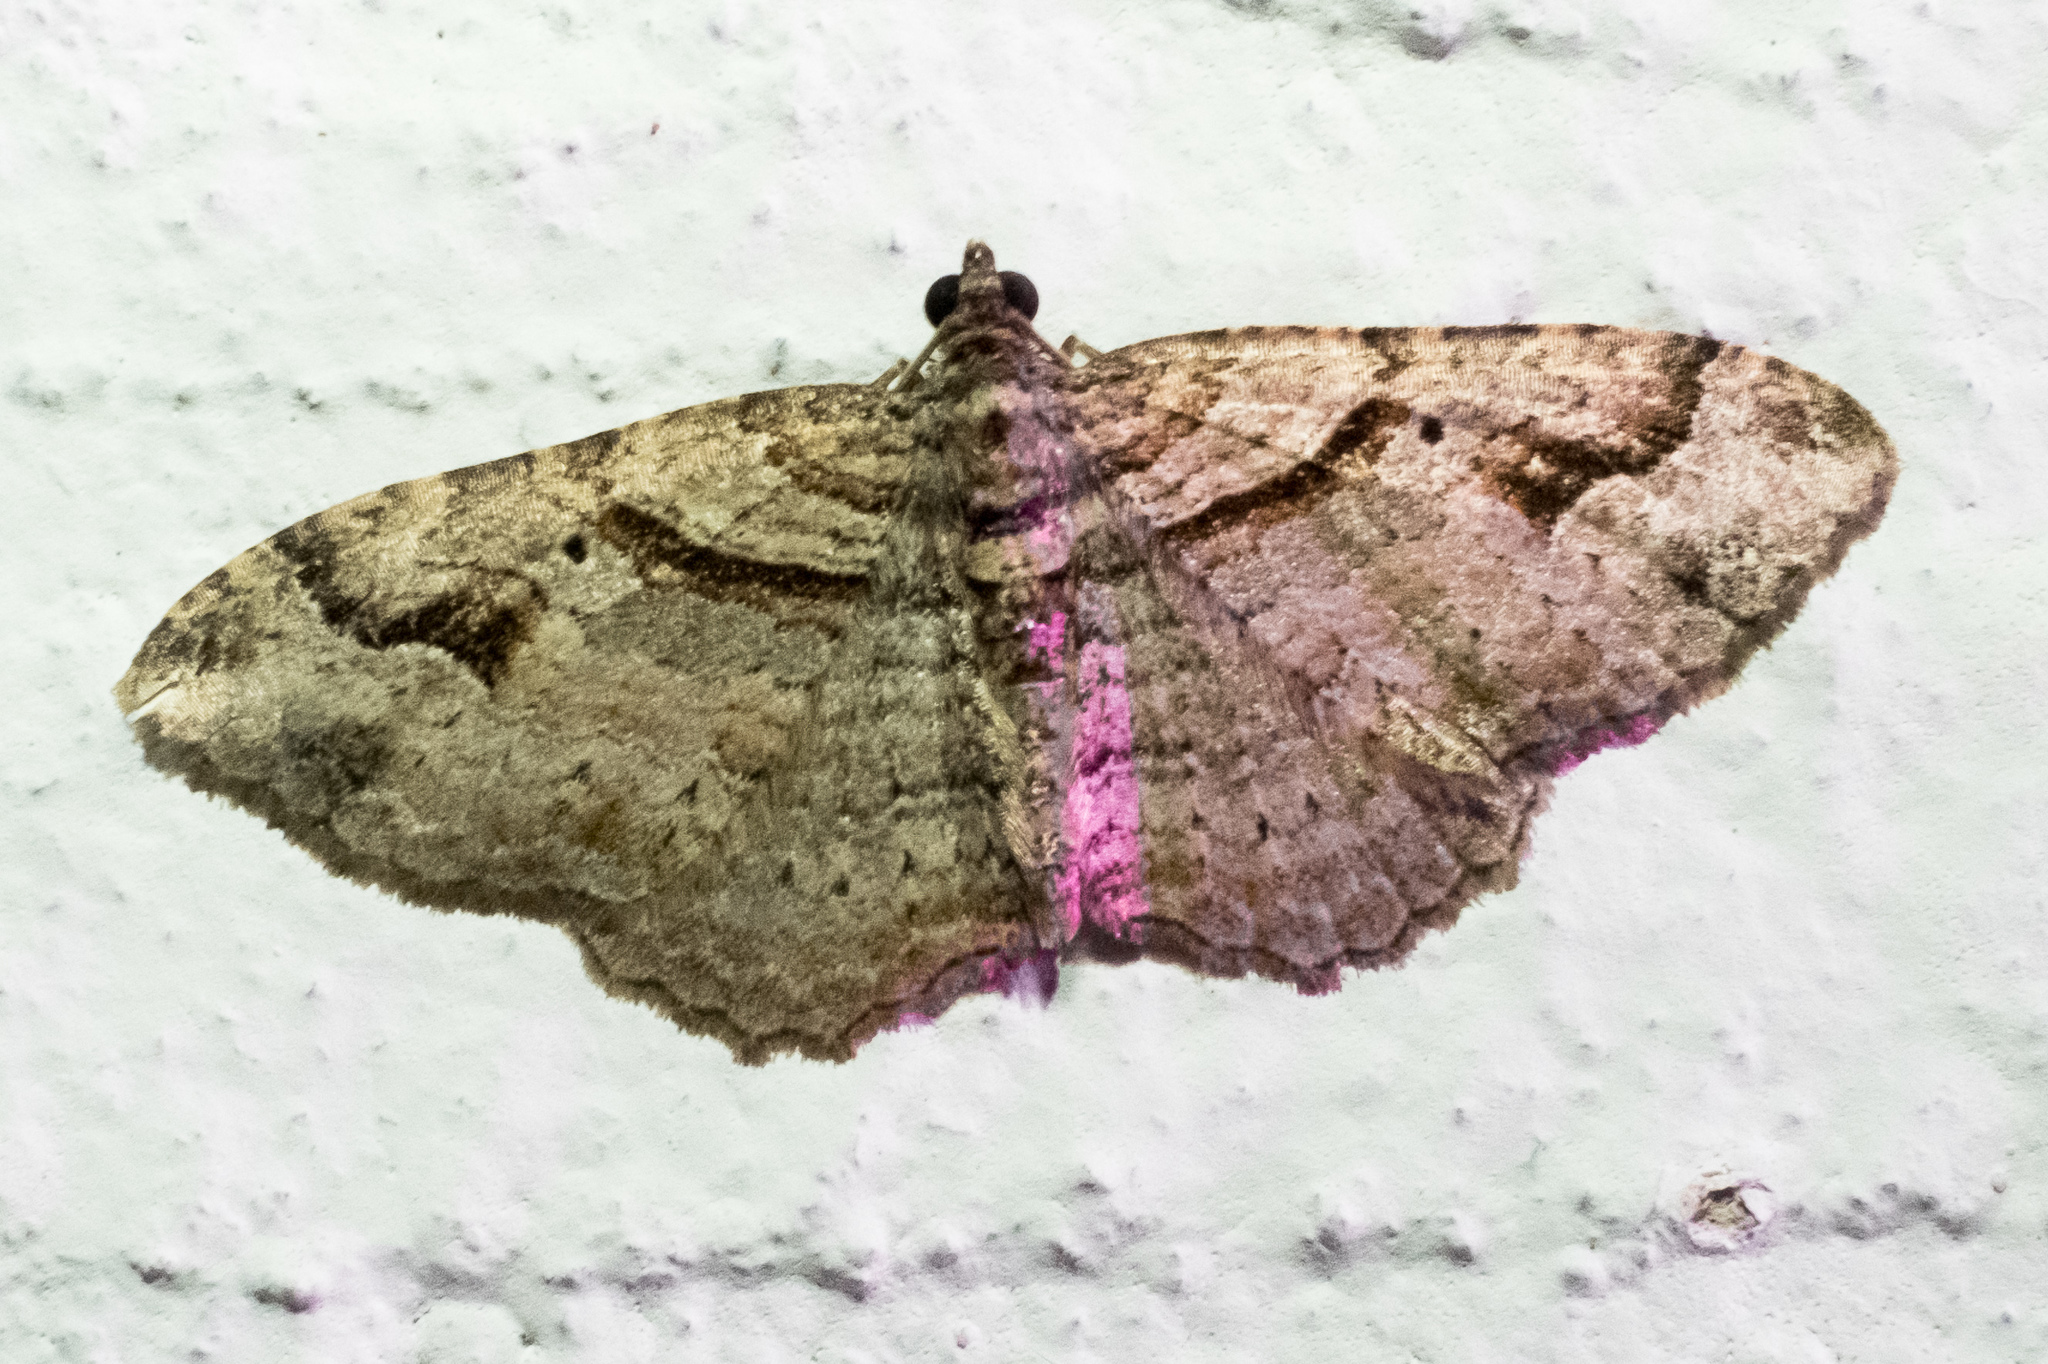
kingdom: Animalia
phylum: Arthropoda
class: Insecta
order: Lepidoptera
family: Geometridae
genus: Costaconvexa
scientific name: Costaconvexa centrostrigaria
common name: Bent-line carpet
